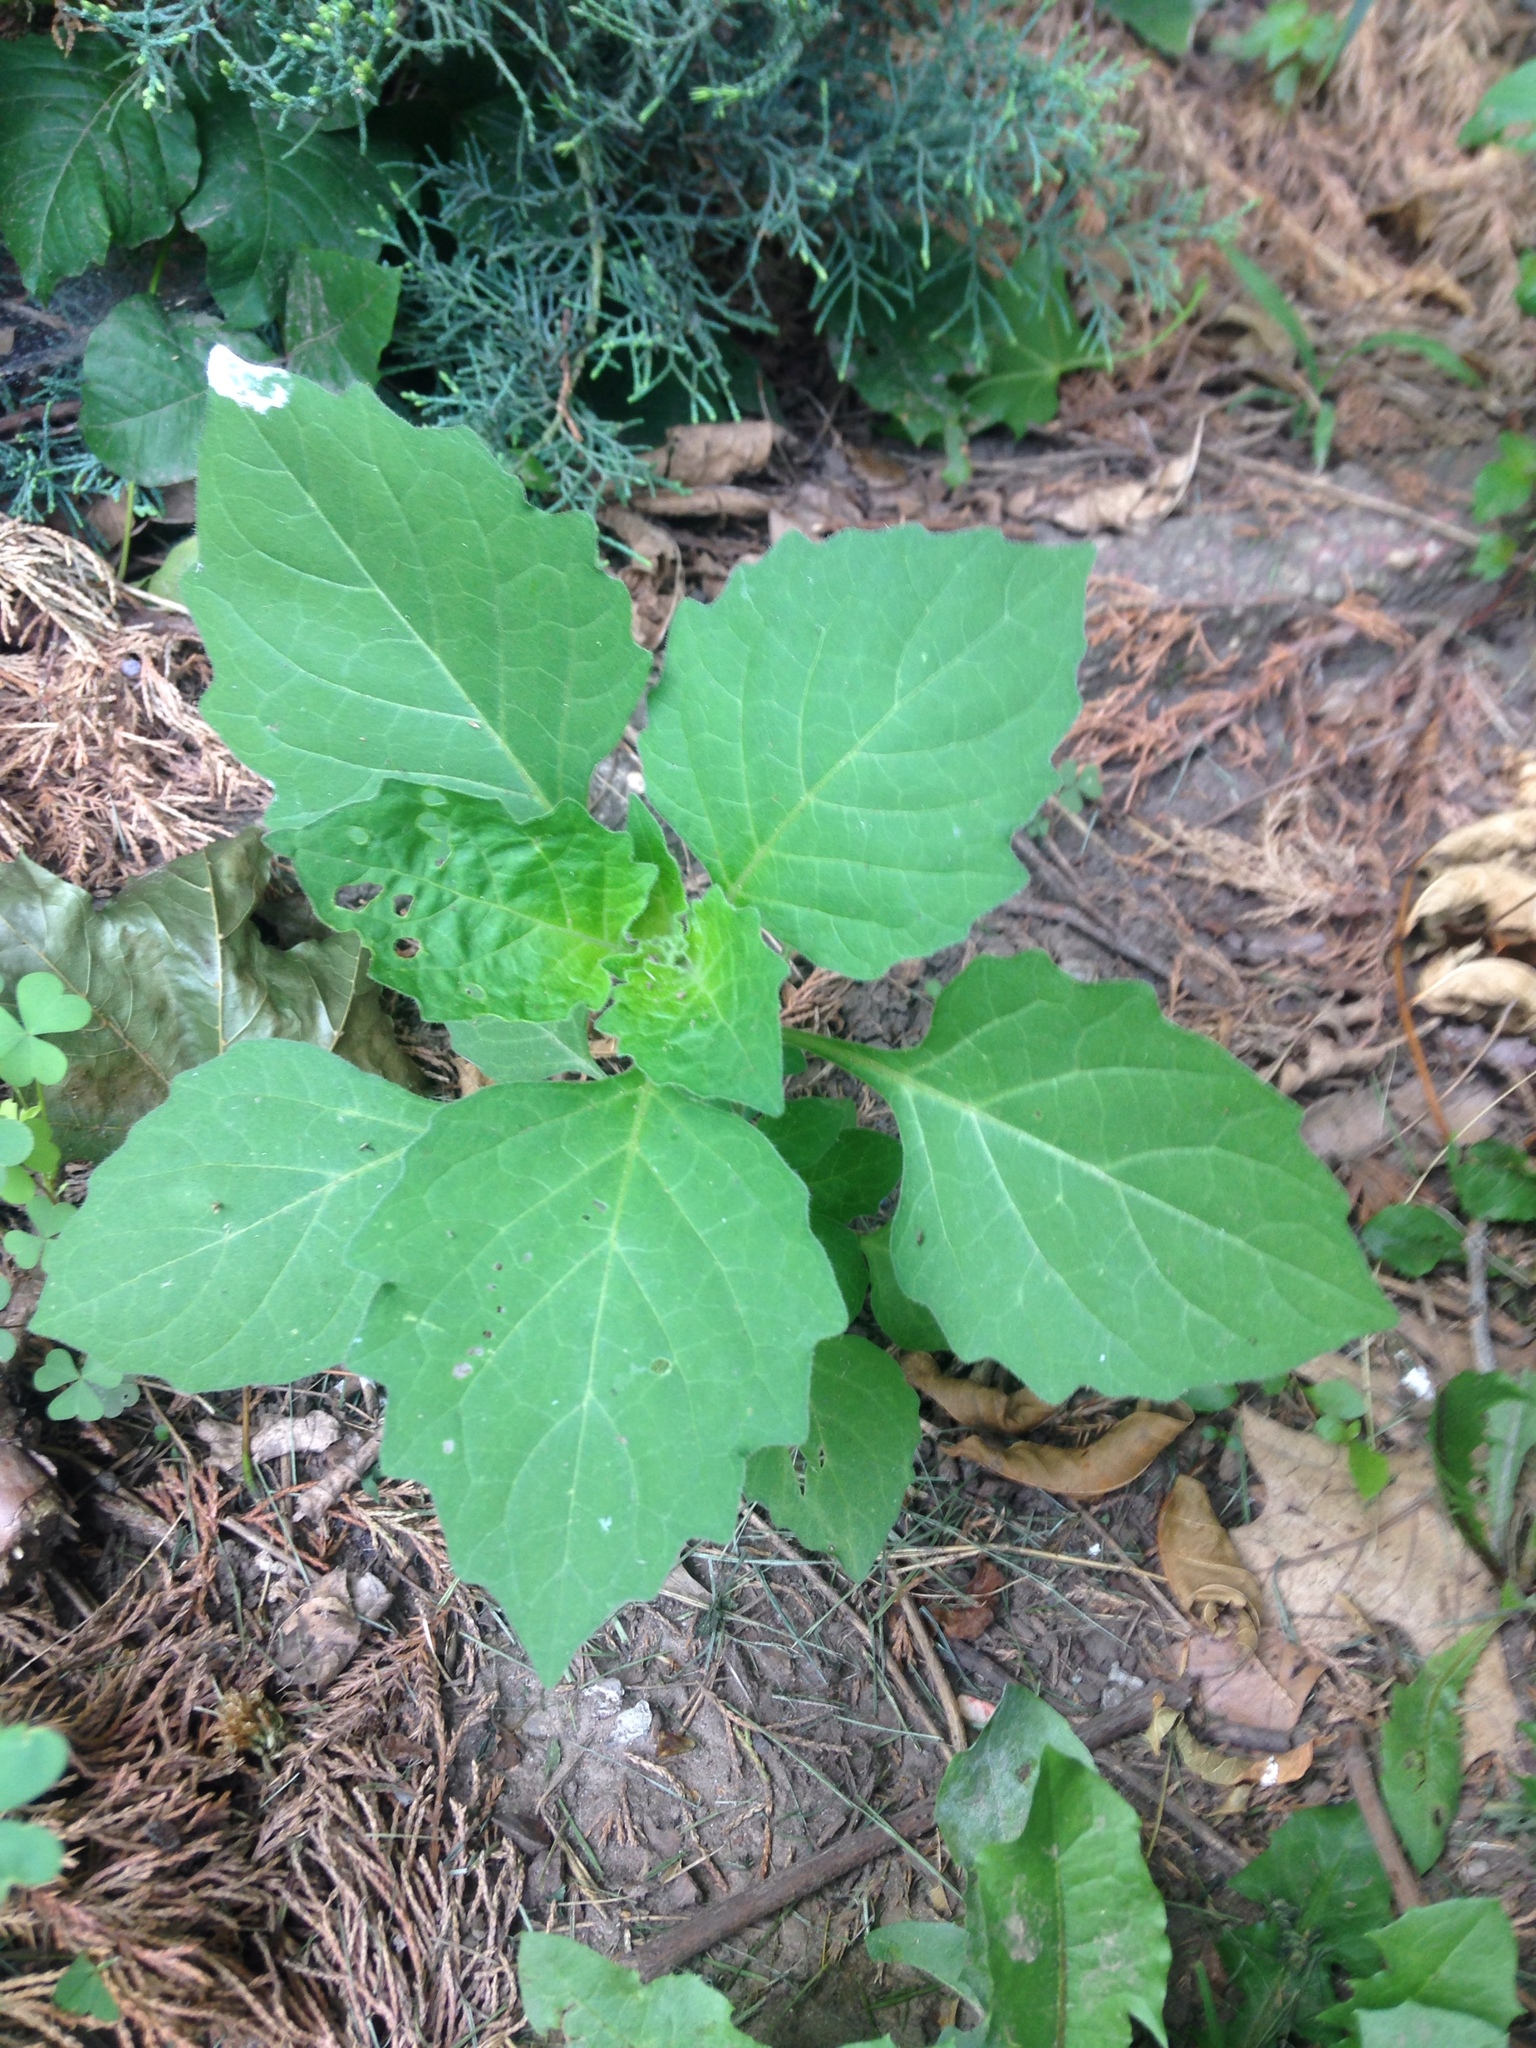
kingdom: Plantae
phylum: Tracheophyta
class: Magnoliopsida
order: Solanales
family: Solanaceae
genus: Solanum
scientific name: Solanum emulans
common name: Eastern black nightshade
